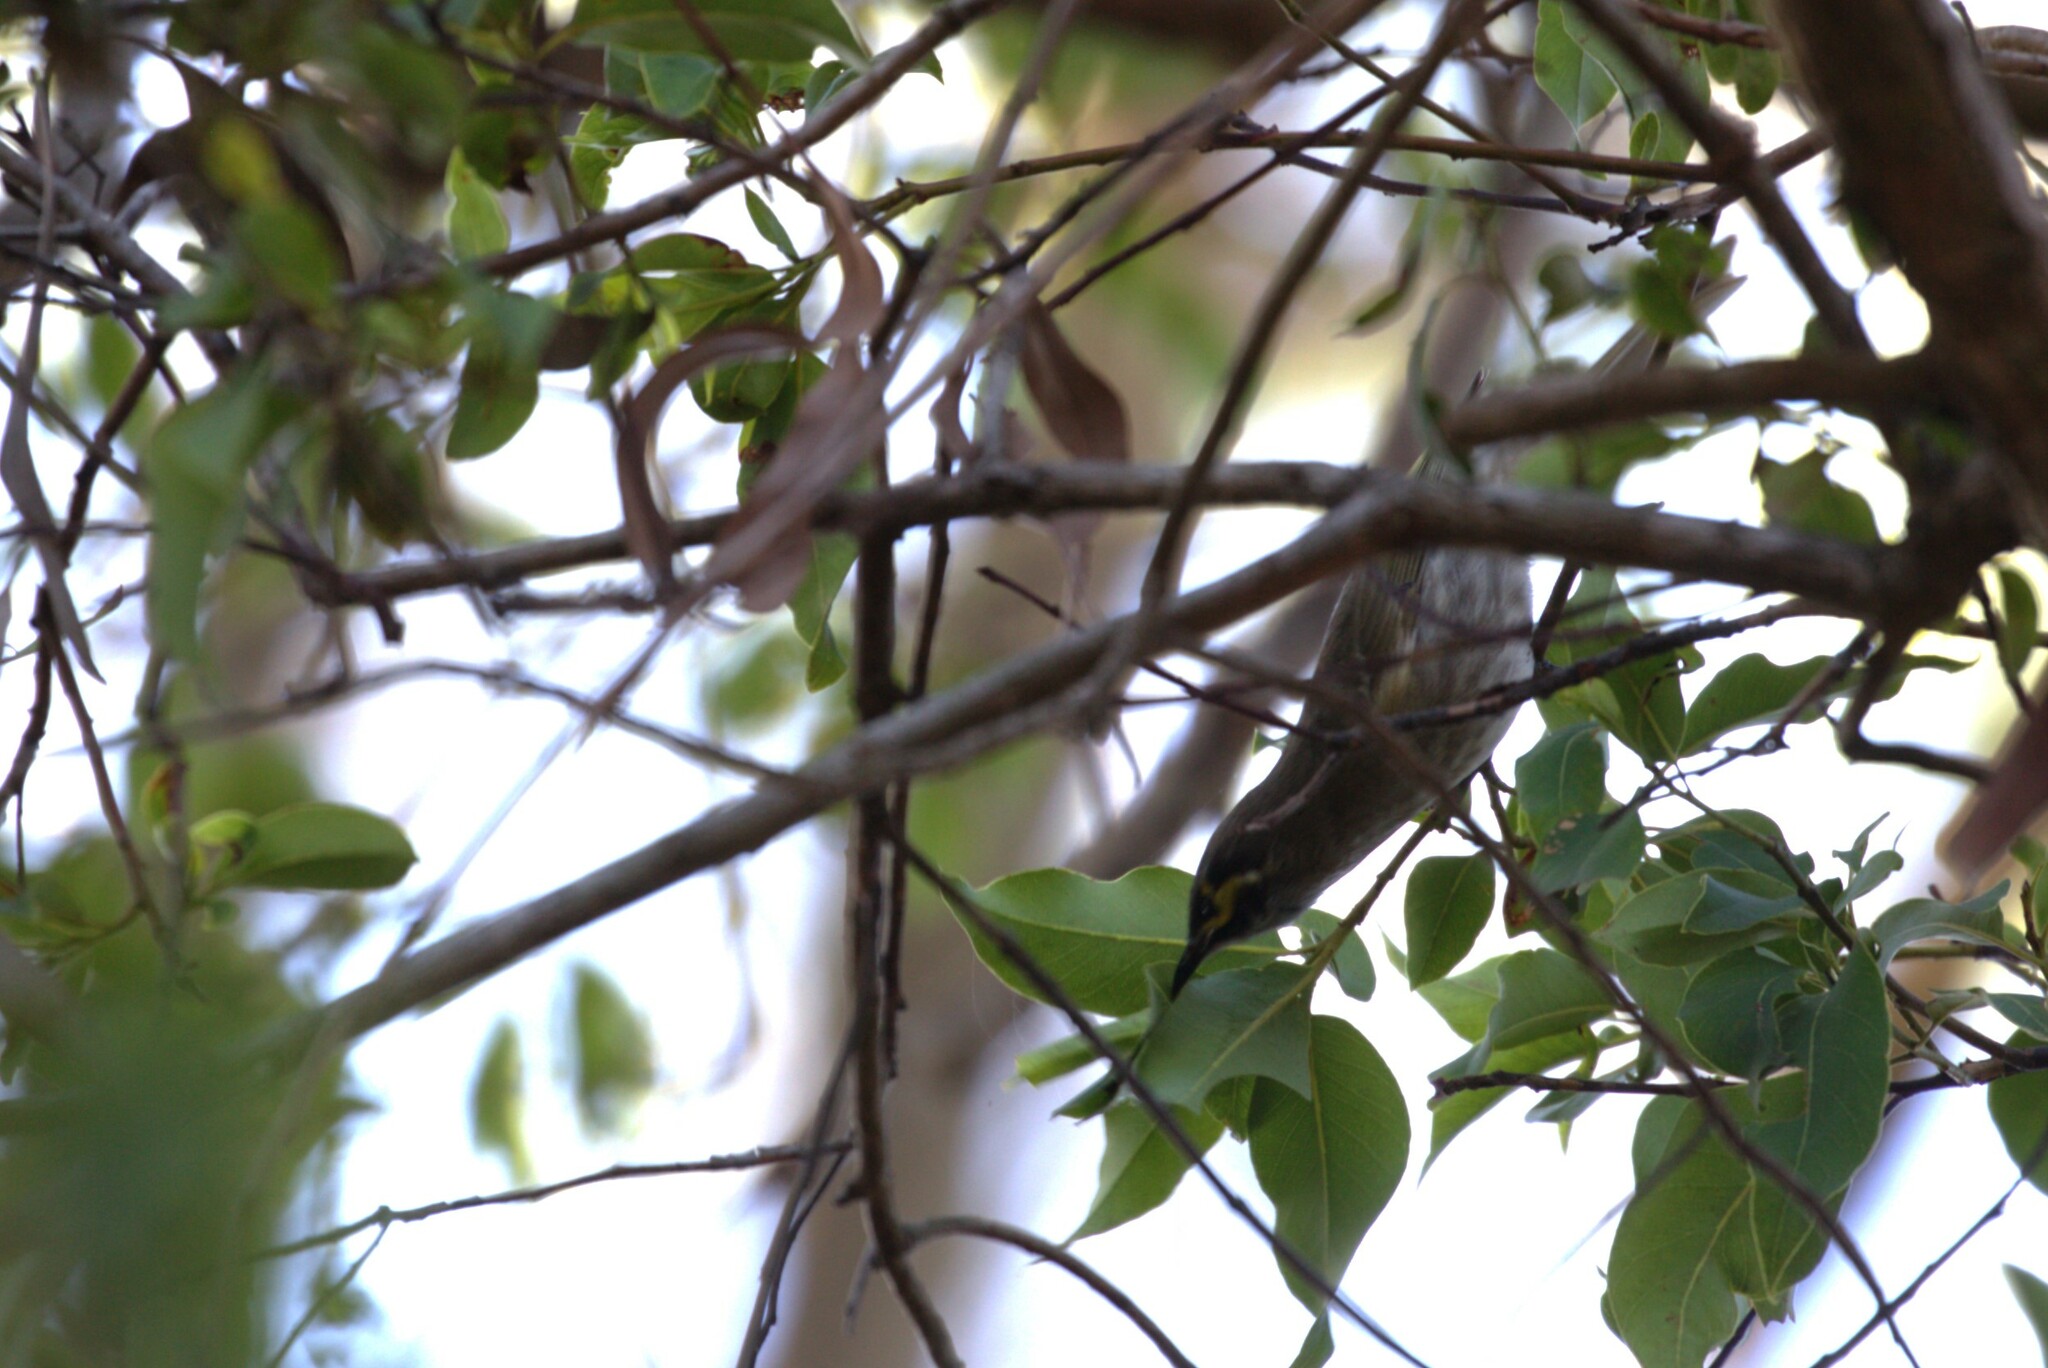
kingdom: Animalia
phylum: Chordata
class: Aves
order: Passeriformes
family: Meliphagidae
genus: Caligavis
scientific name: Caligavis chrysops
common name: Yellow-faced honeyeater
